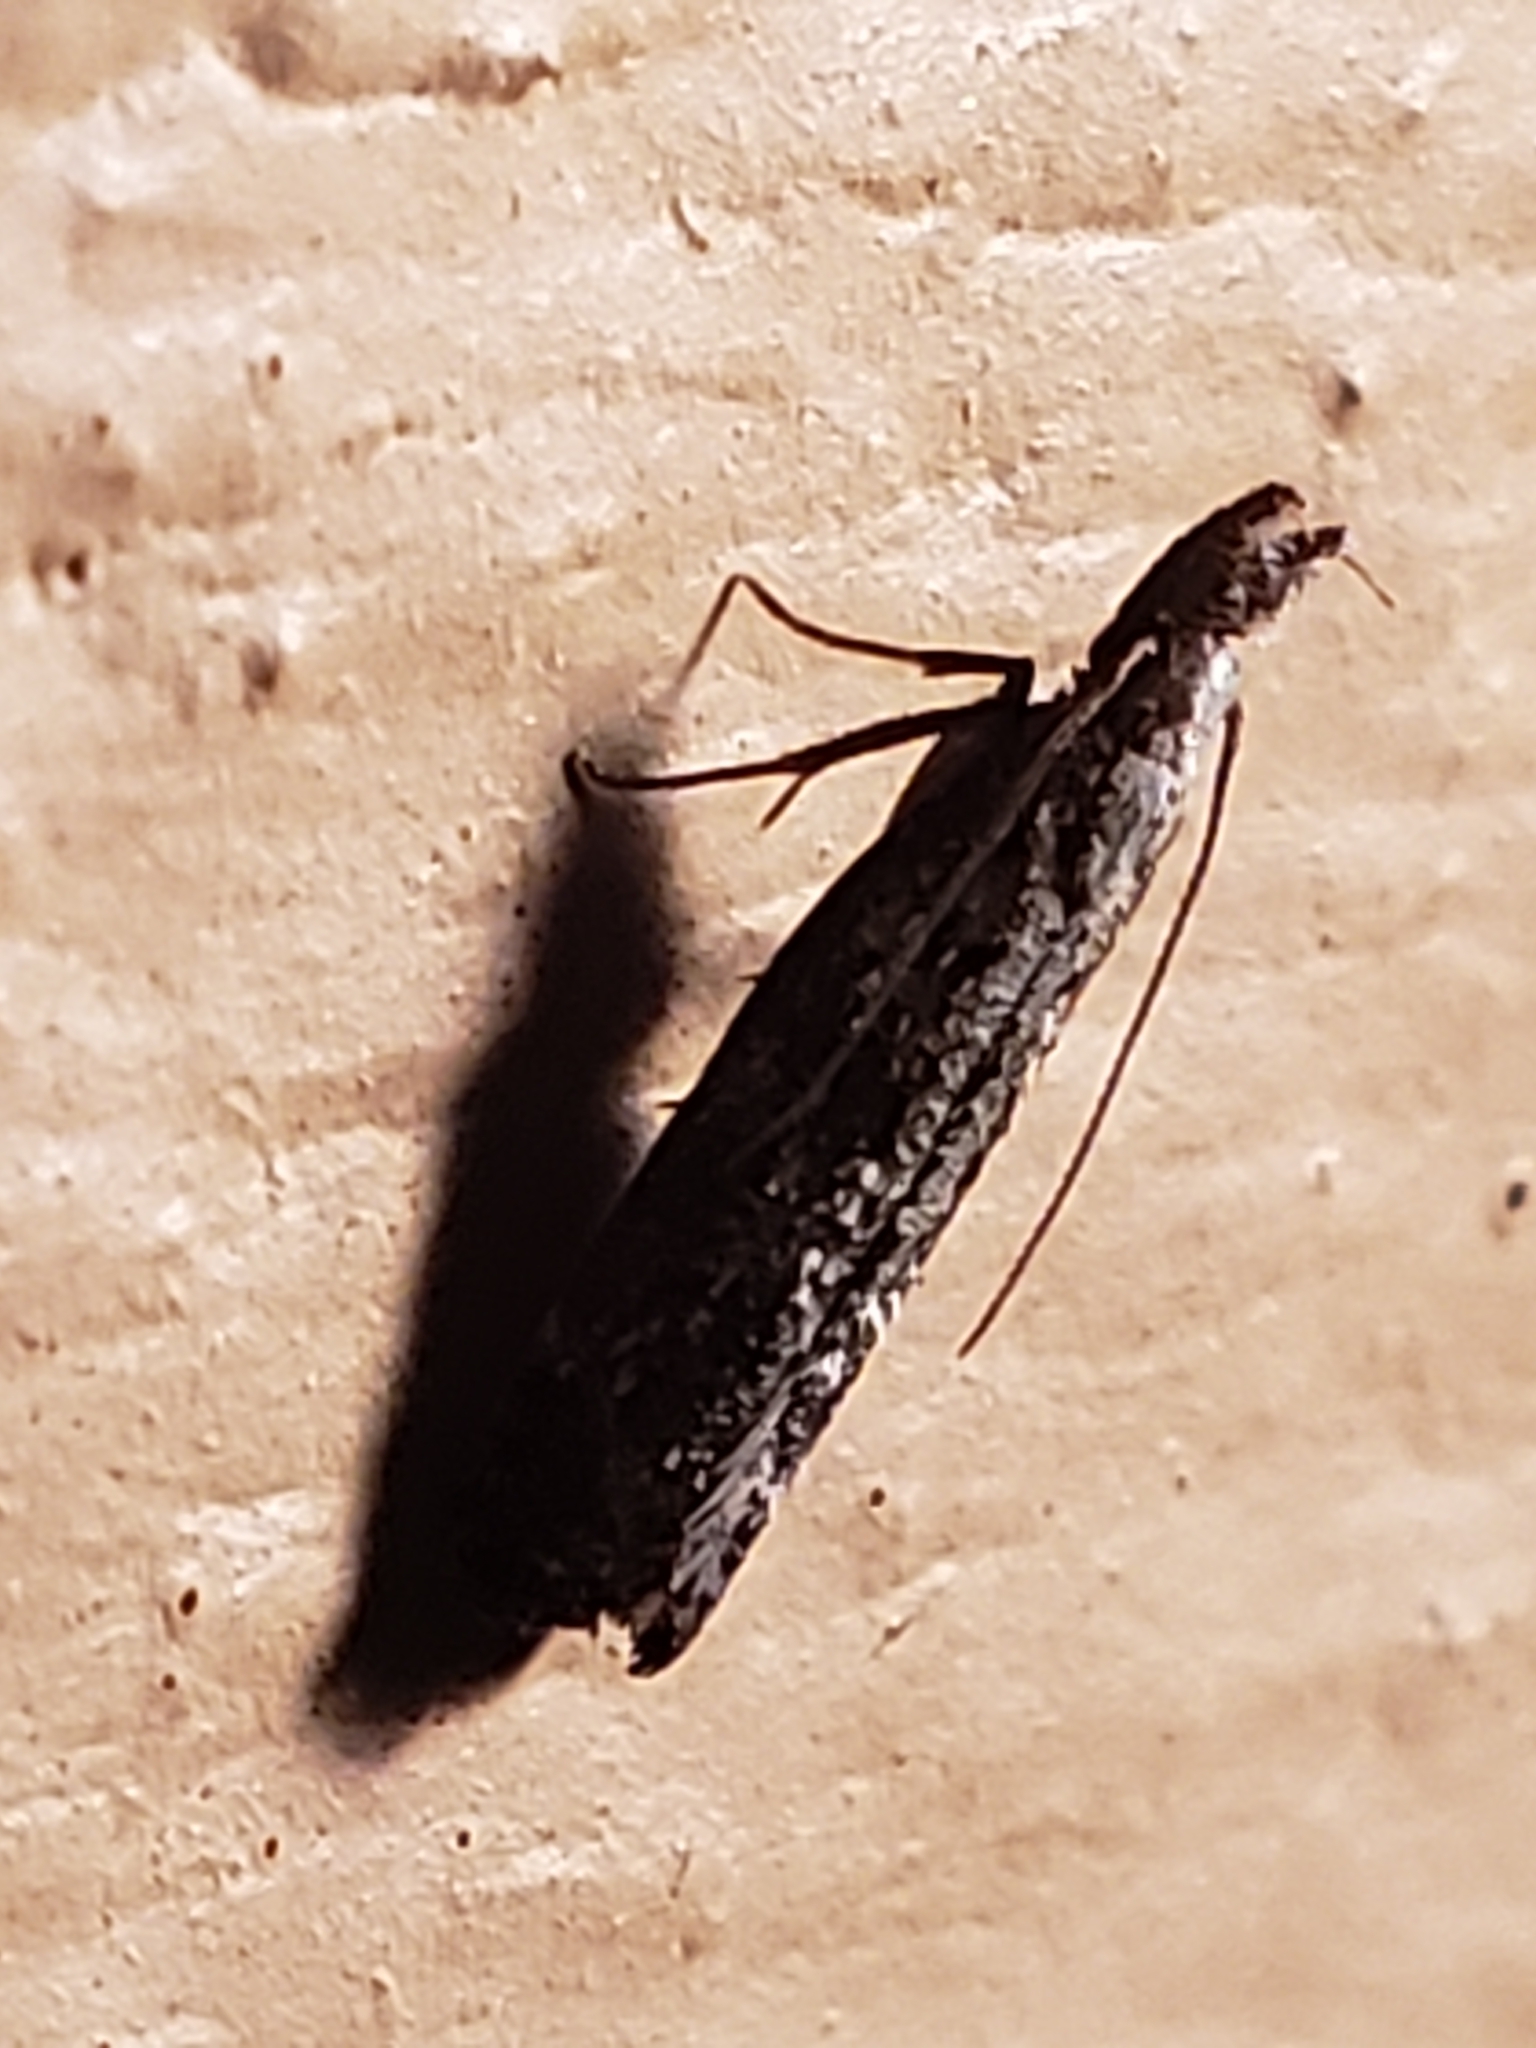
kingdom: Animalia
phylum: Arthropoda
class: Insecta
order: Lepidoptera
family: Gelechiidae
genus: Dichomeris
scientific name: Dichomeris inversella
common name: Inverse dichomeris moth
